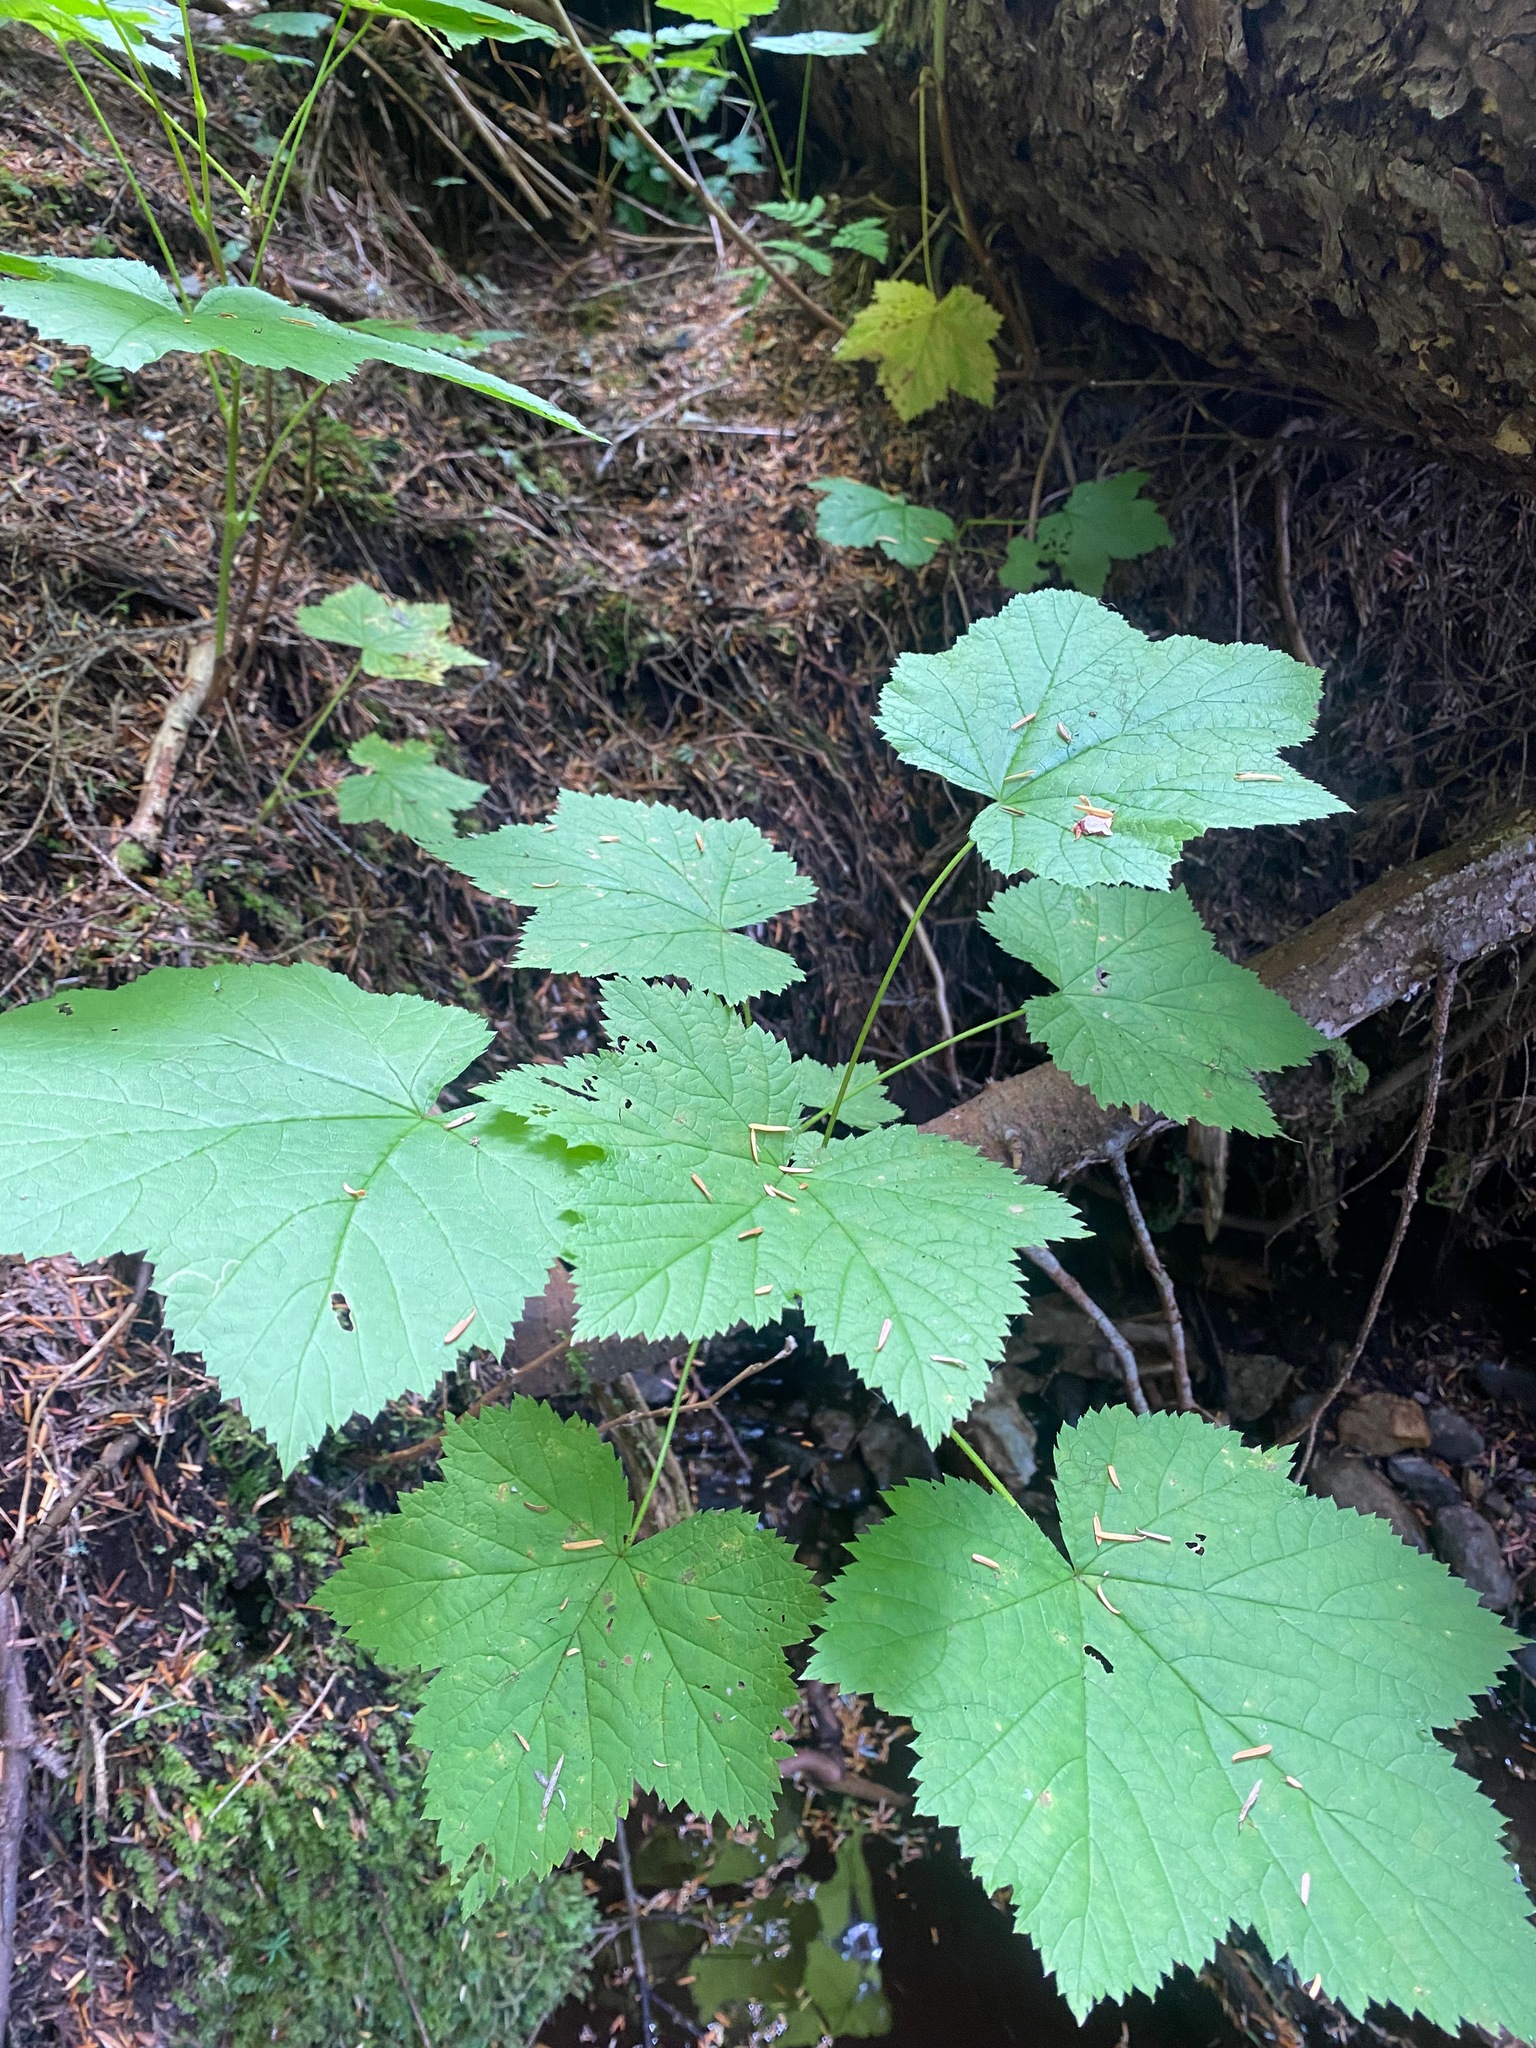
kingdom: Plantae
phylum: Tracheophyta
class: Magnoliopsida
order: Rosales
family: Rosaceae
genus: Rubus
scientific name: Rubus parviflorus
